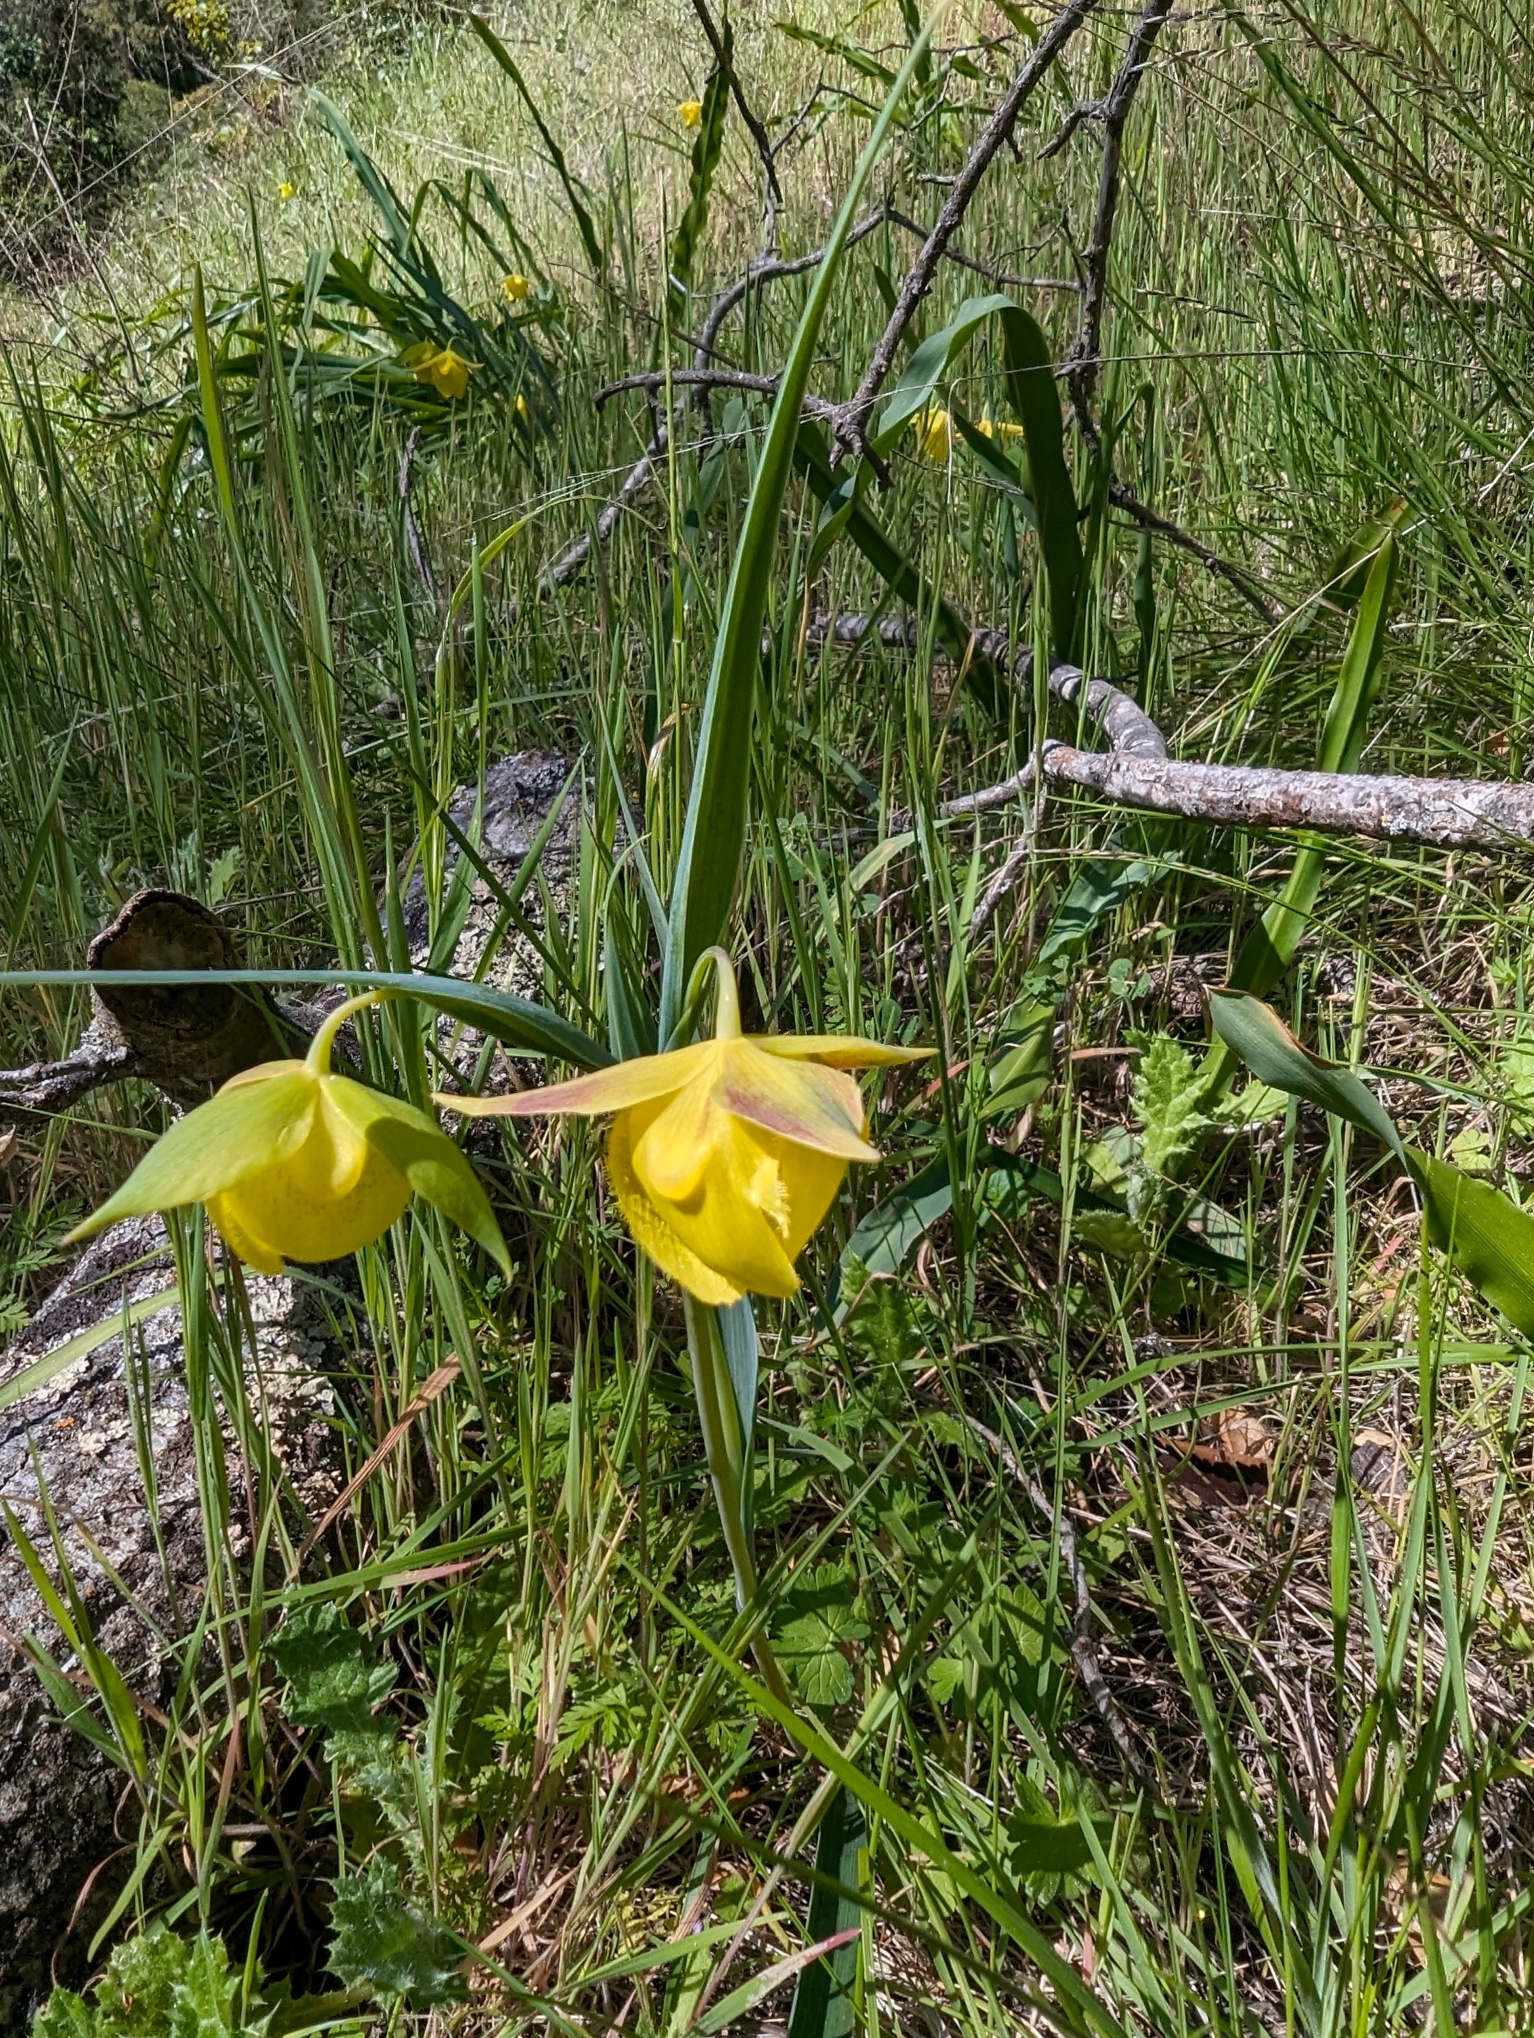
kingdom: Plantae
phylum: Tracheophyta
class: Liliopsida
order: Liliales
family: Liliaceae
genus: Calochortus
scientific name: Calochortus pulchellus
